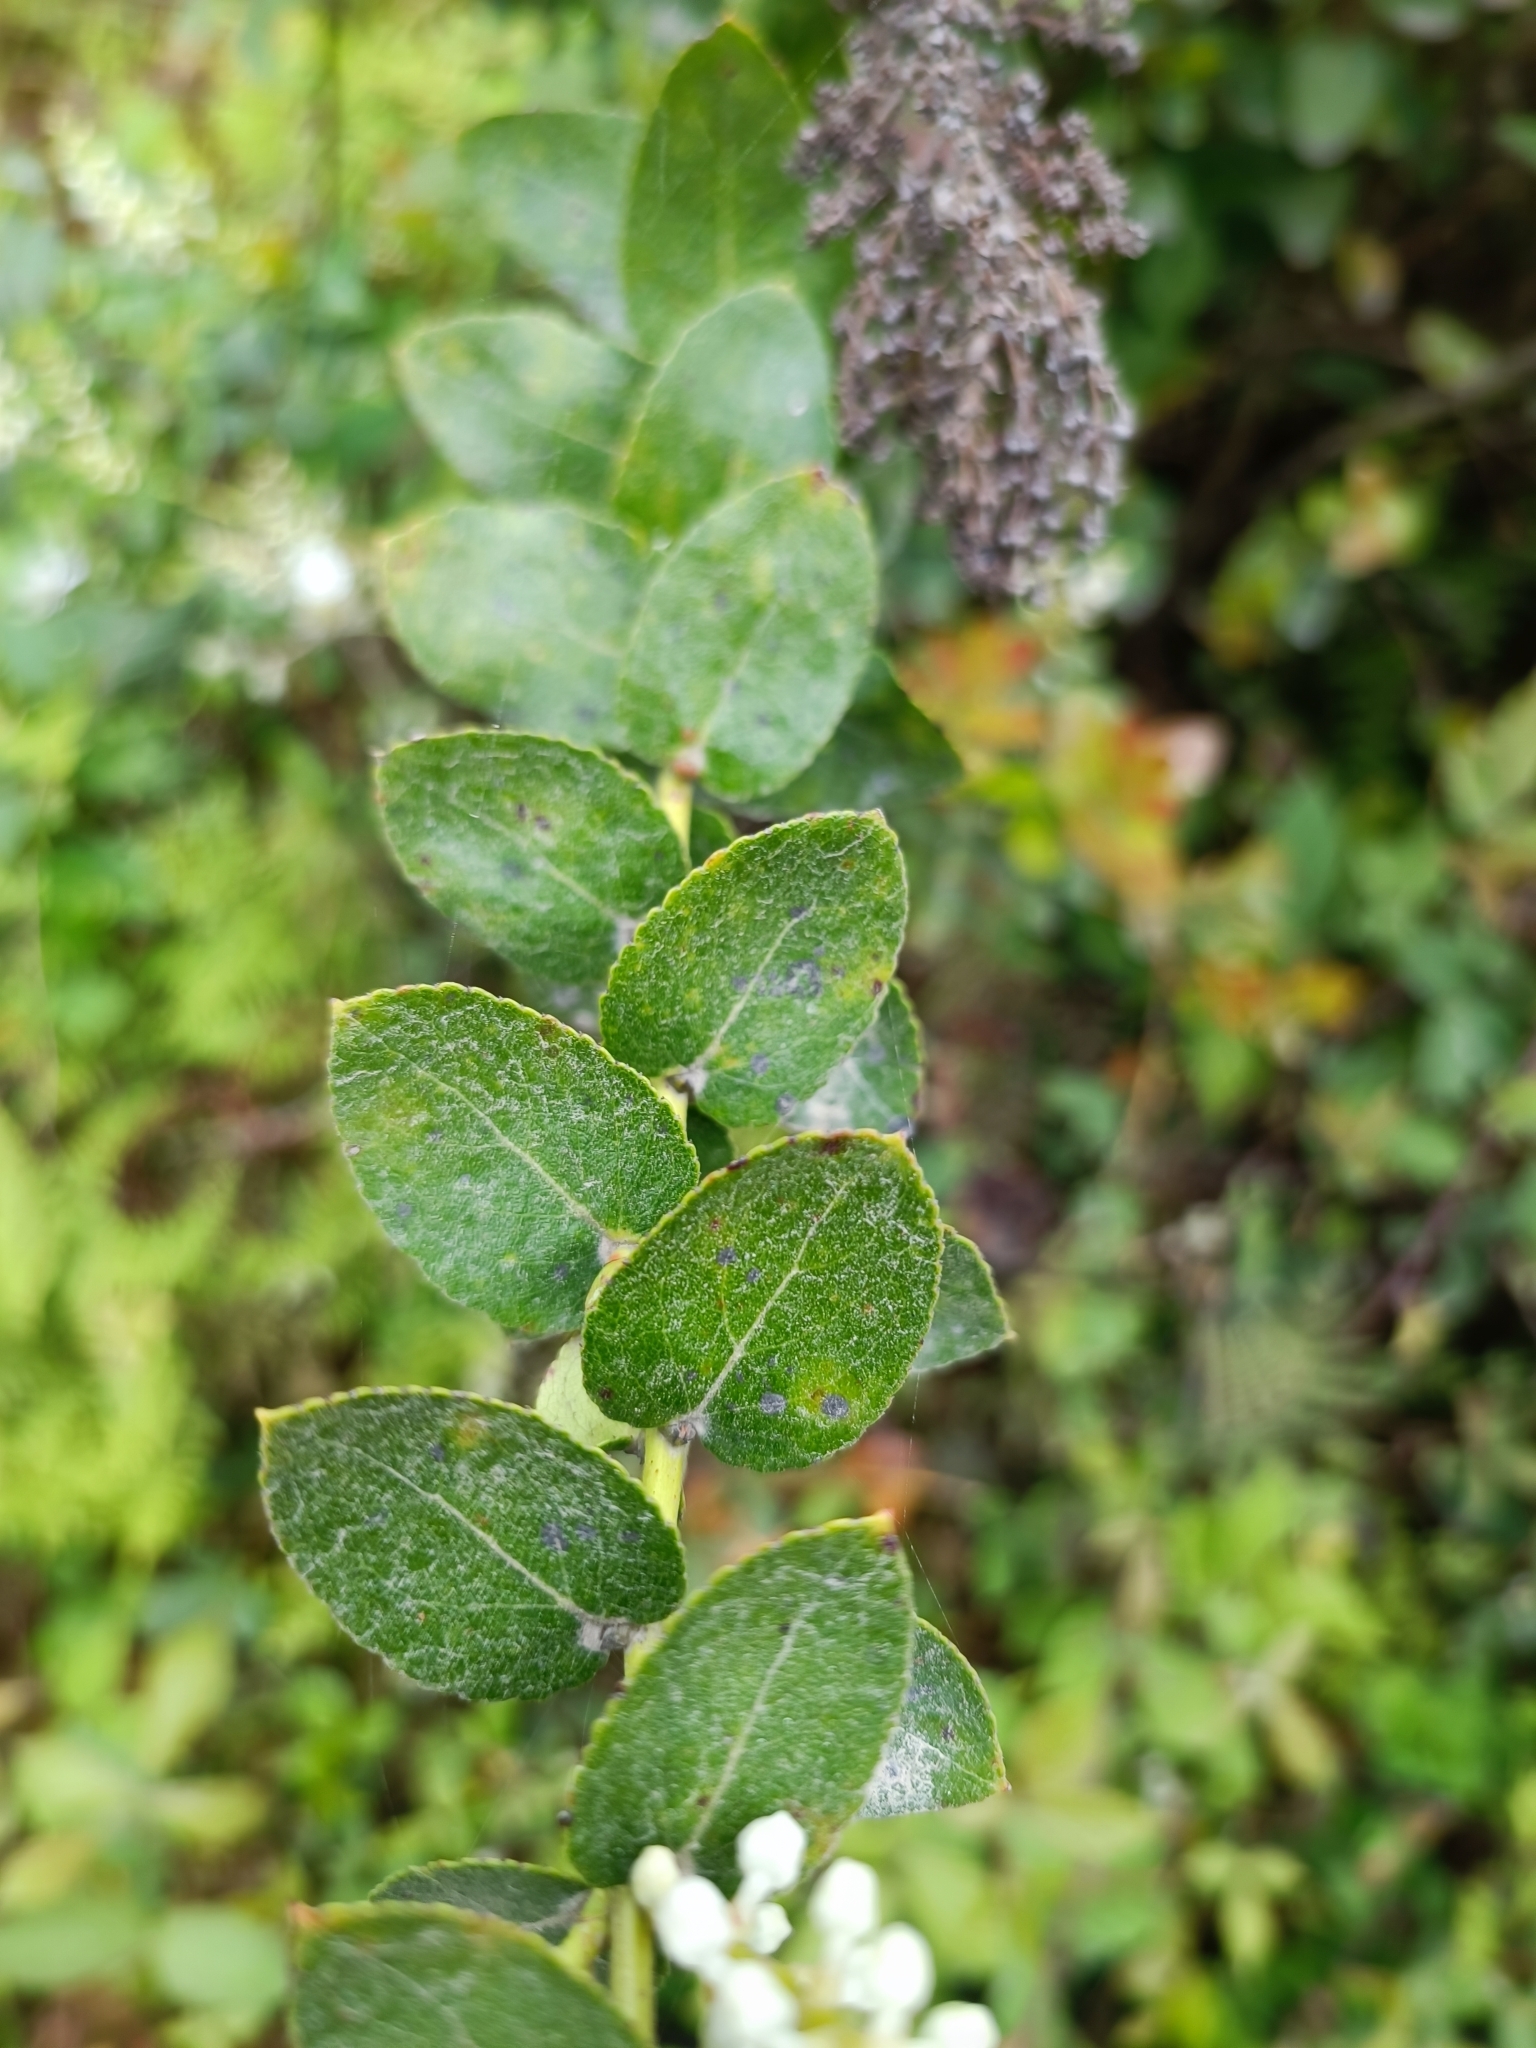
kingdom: Plantae
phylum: Tracheophyta
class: Magnoliopsida
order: Ericales
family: Ericaceae
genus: Gaultheria
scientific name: Gaultheria oppositifolia
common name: Snowberry
